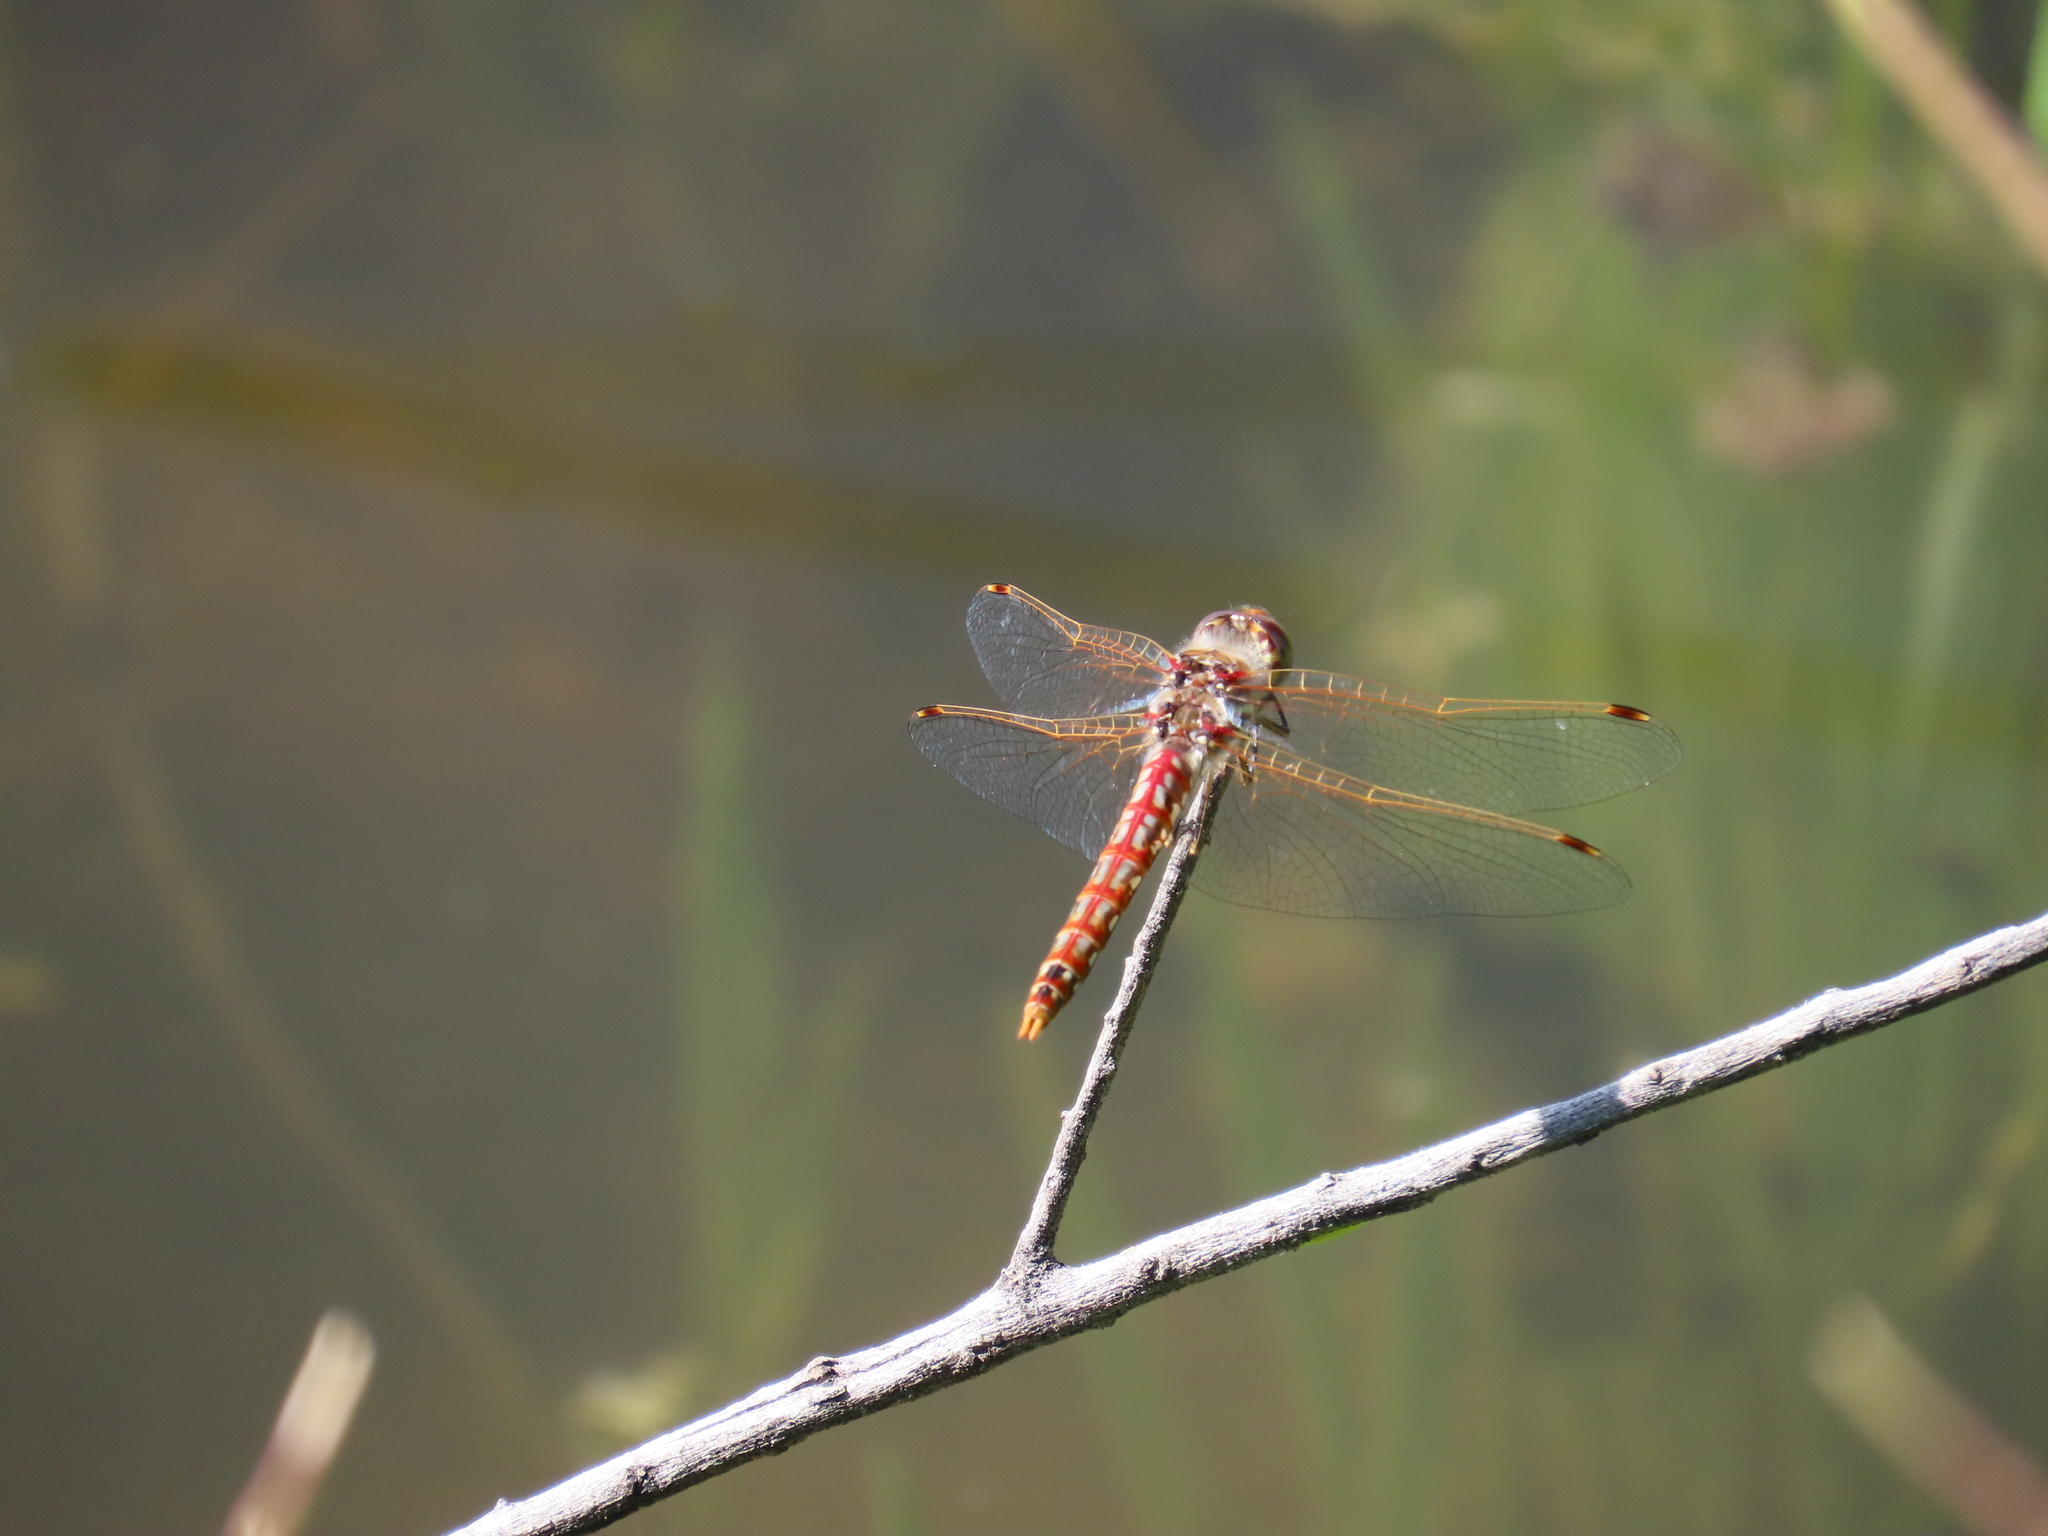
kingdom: Animalia
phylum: Arthropoda
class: Insecta
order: Odonata
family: Libellulidae
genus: Sympetrum
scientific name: Sympetrum corruptum
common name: Variegated meadowhawk
